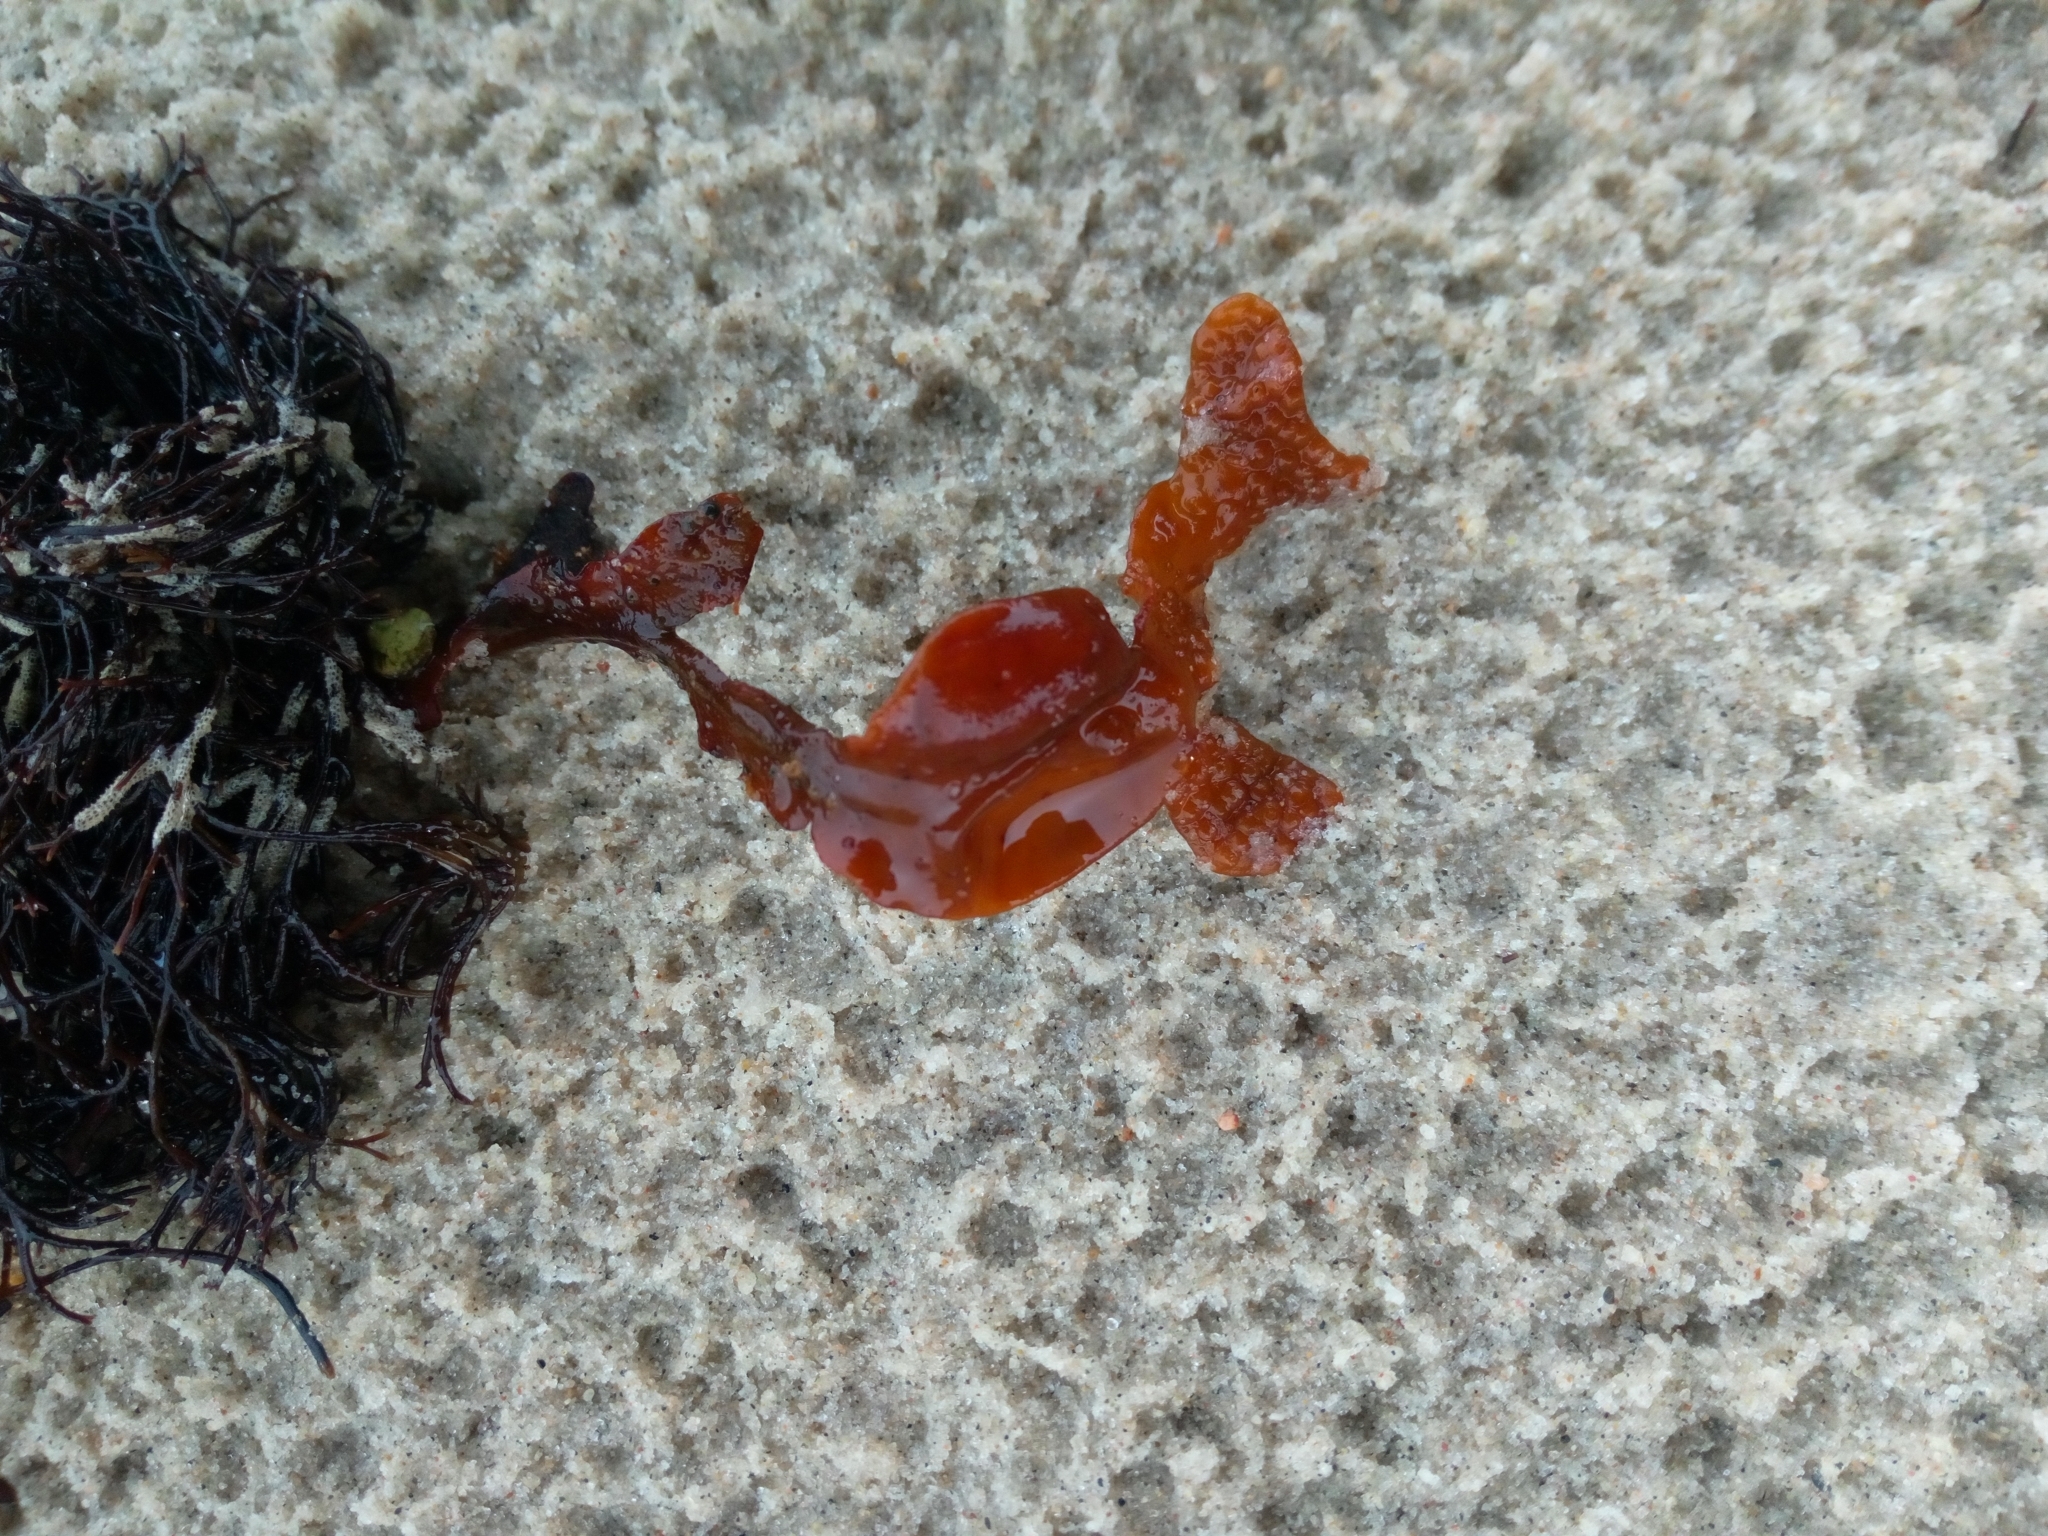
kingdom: Chromista
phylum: Ochrophyta
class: Phaeophyceae
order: Fucales
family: Fucaceae
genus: Fucus
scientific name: Fucus vesiculosus
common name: Bladder wrack
